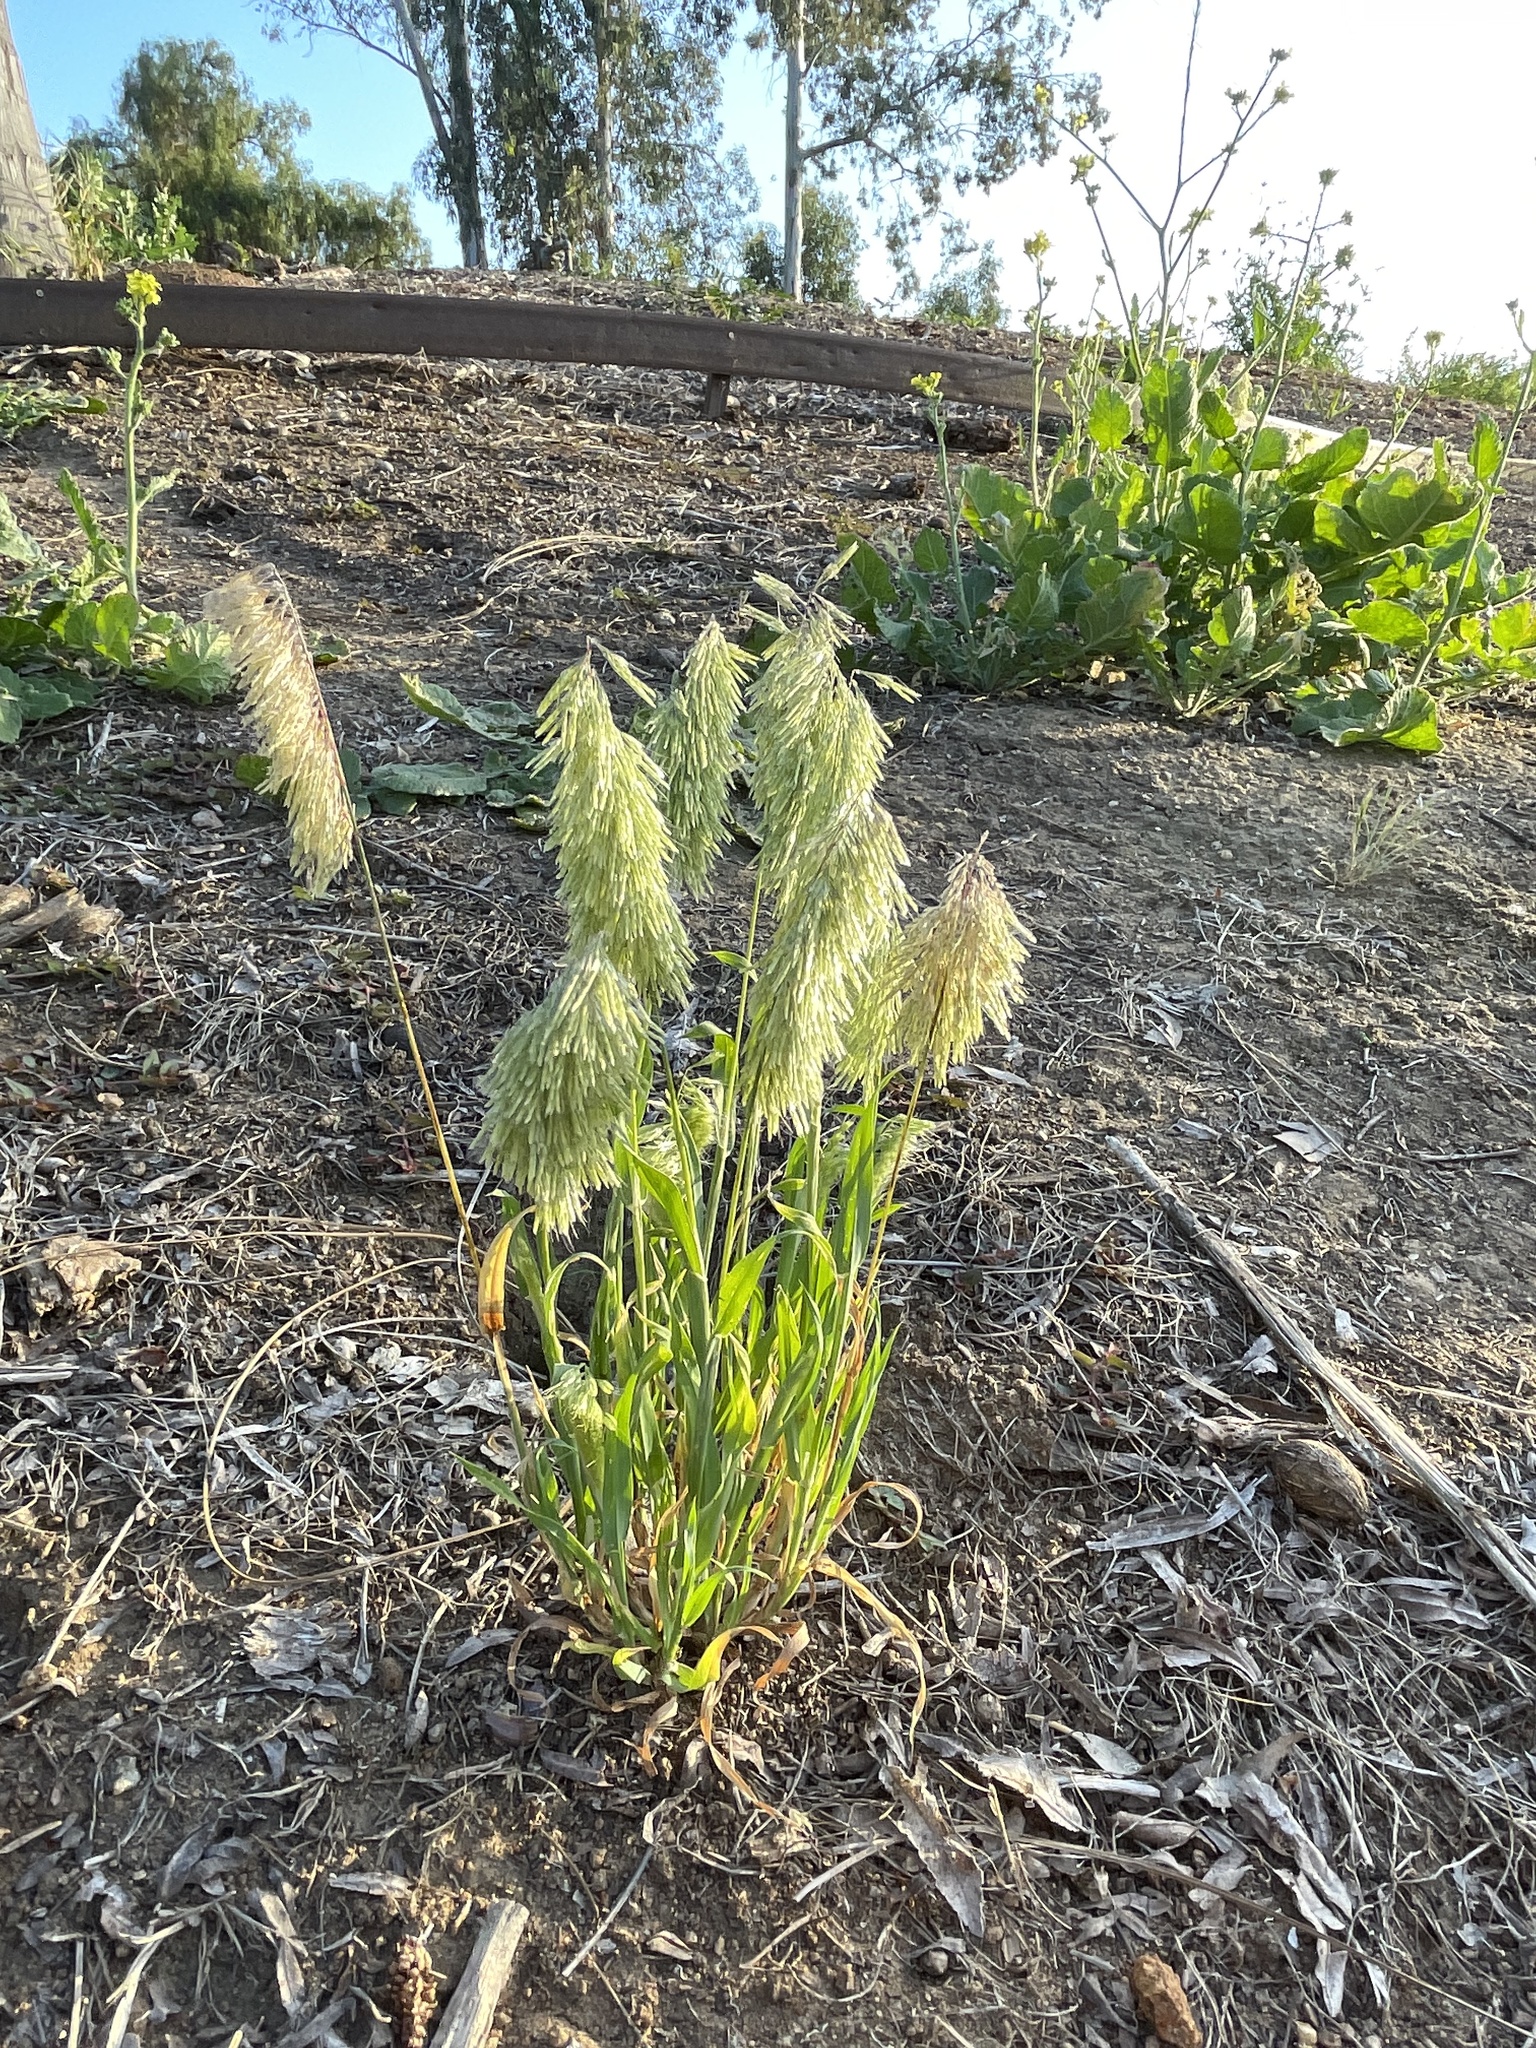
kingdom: Plantae
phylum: Tracheophyta
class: Liliopsida
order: Poales
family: Poaceae
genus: Lamarckia
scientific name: Lamarckia aurea
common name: Golden dog's-tail
